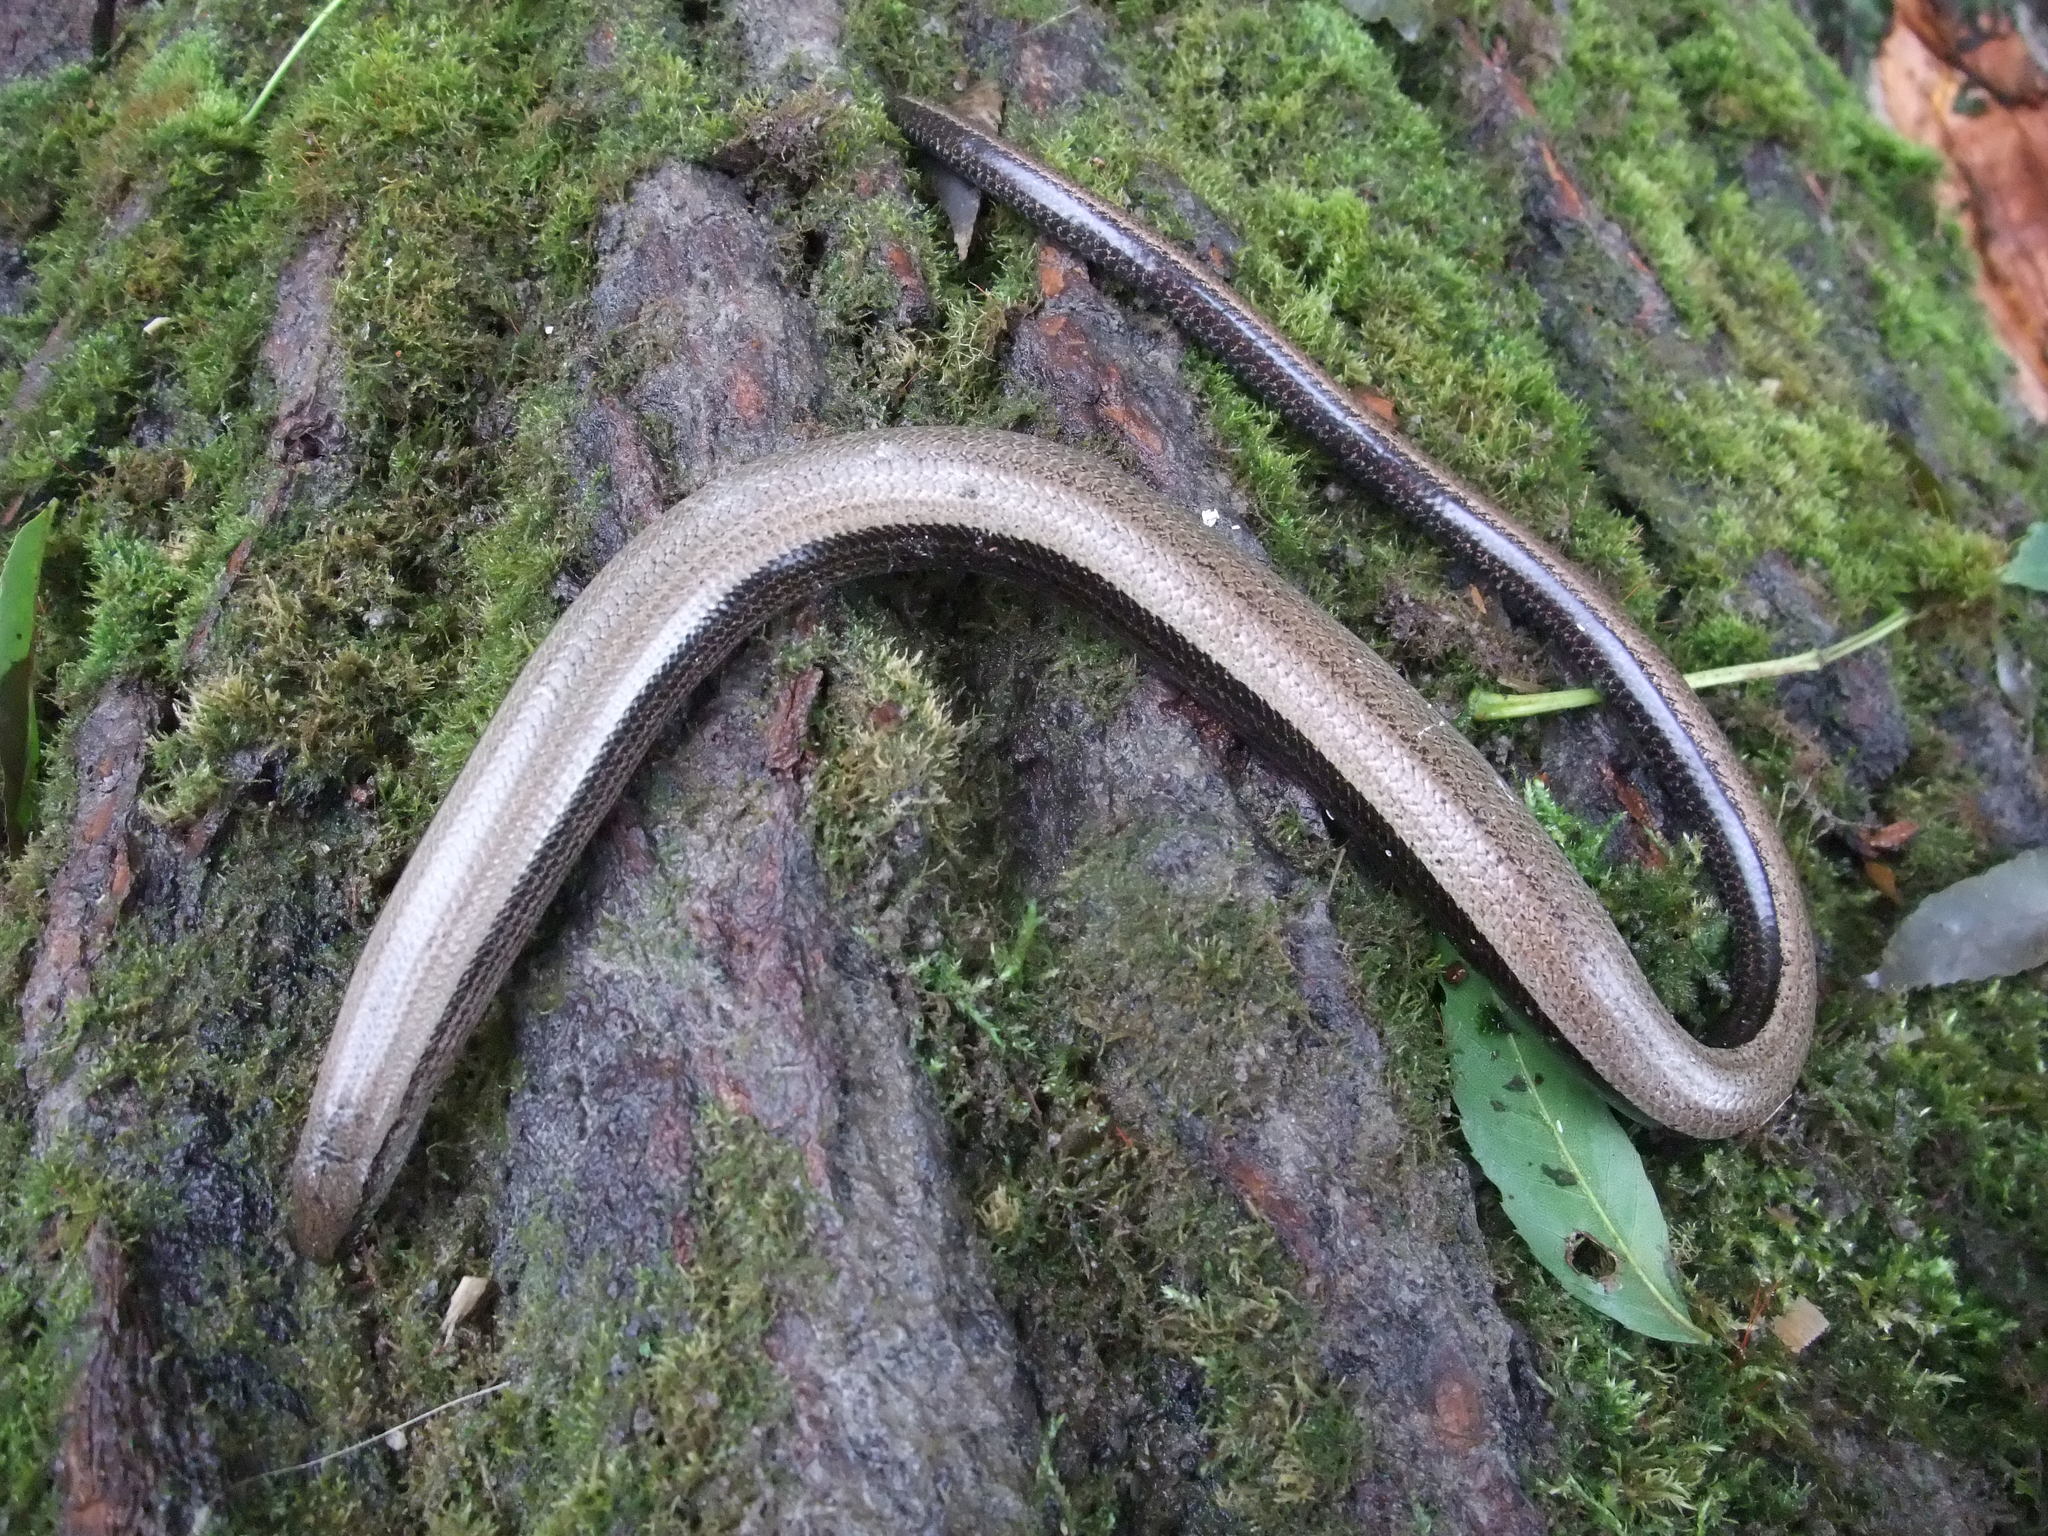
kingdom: Animalia
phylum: Chordata
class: Squamata
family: Anguidae
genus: Anguis
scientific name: Anguis fragilis
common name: Slow worm
